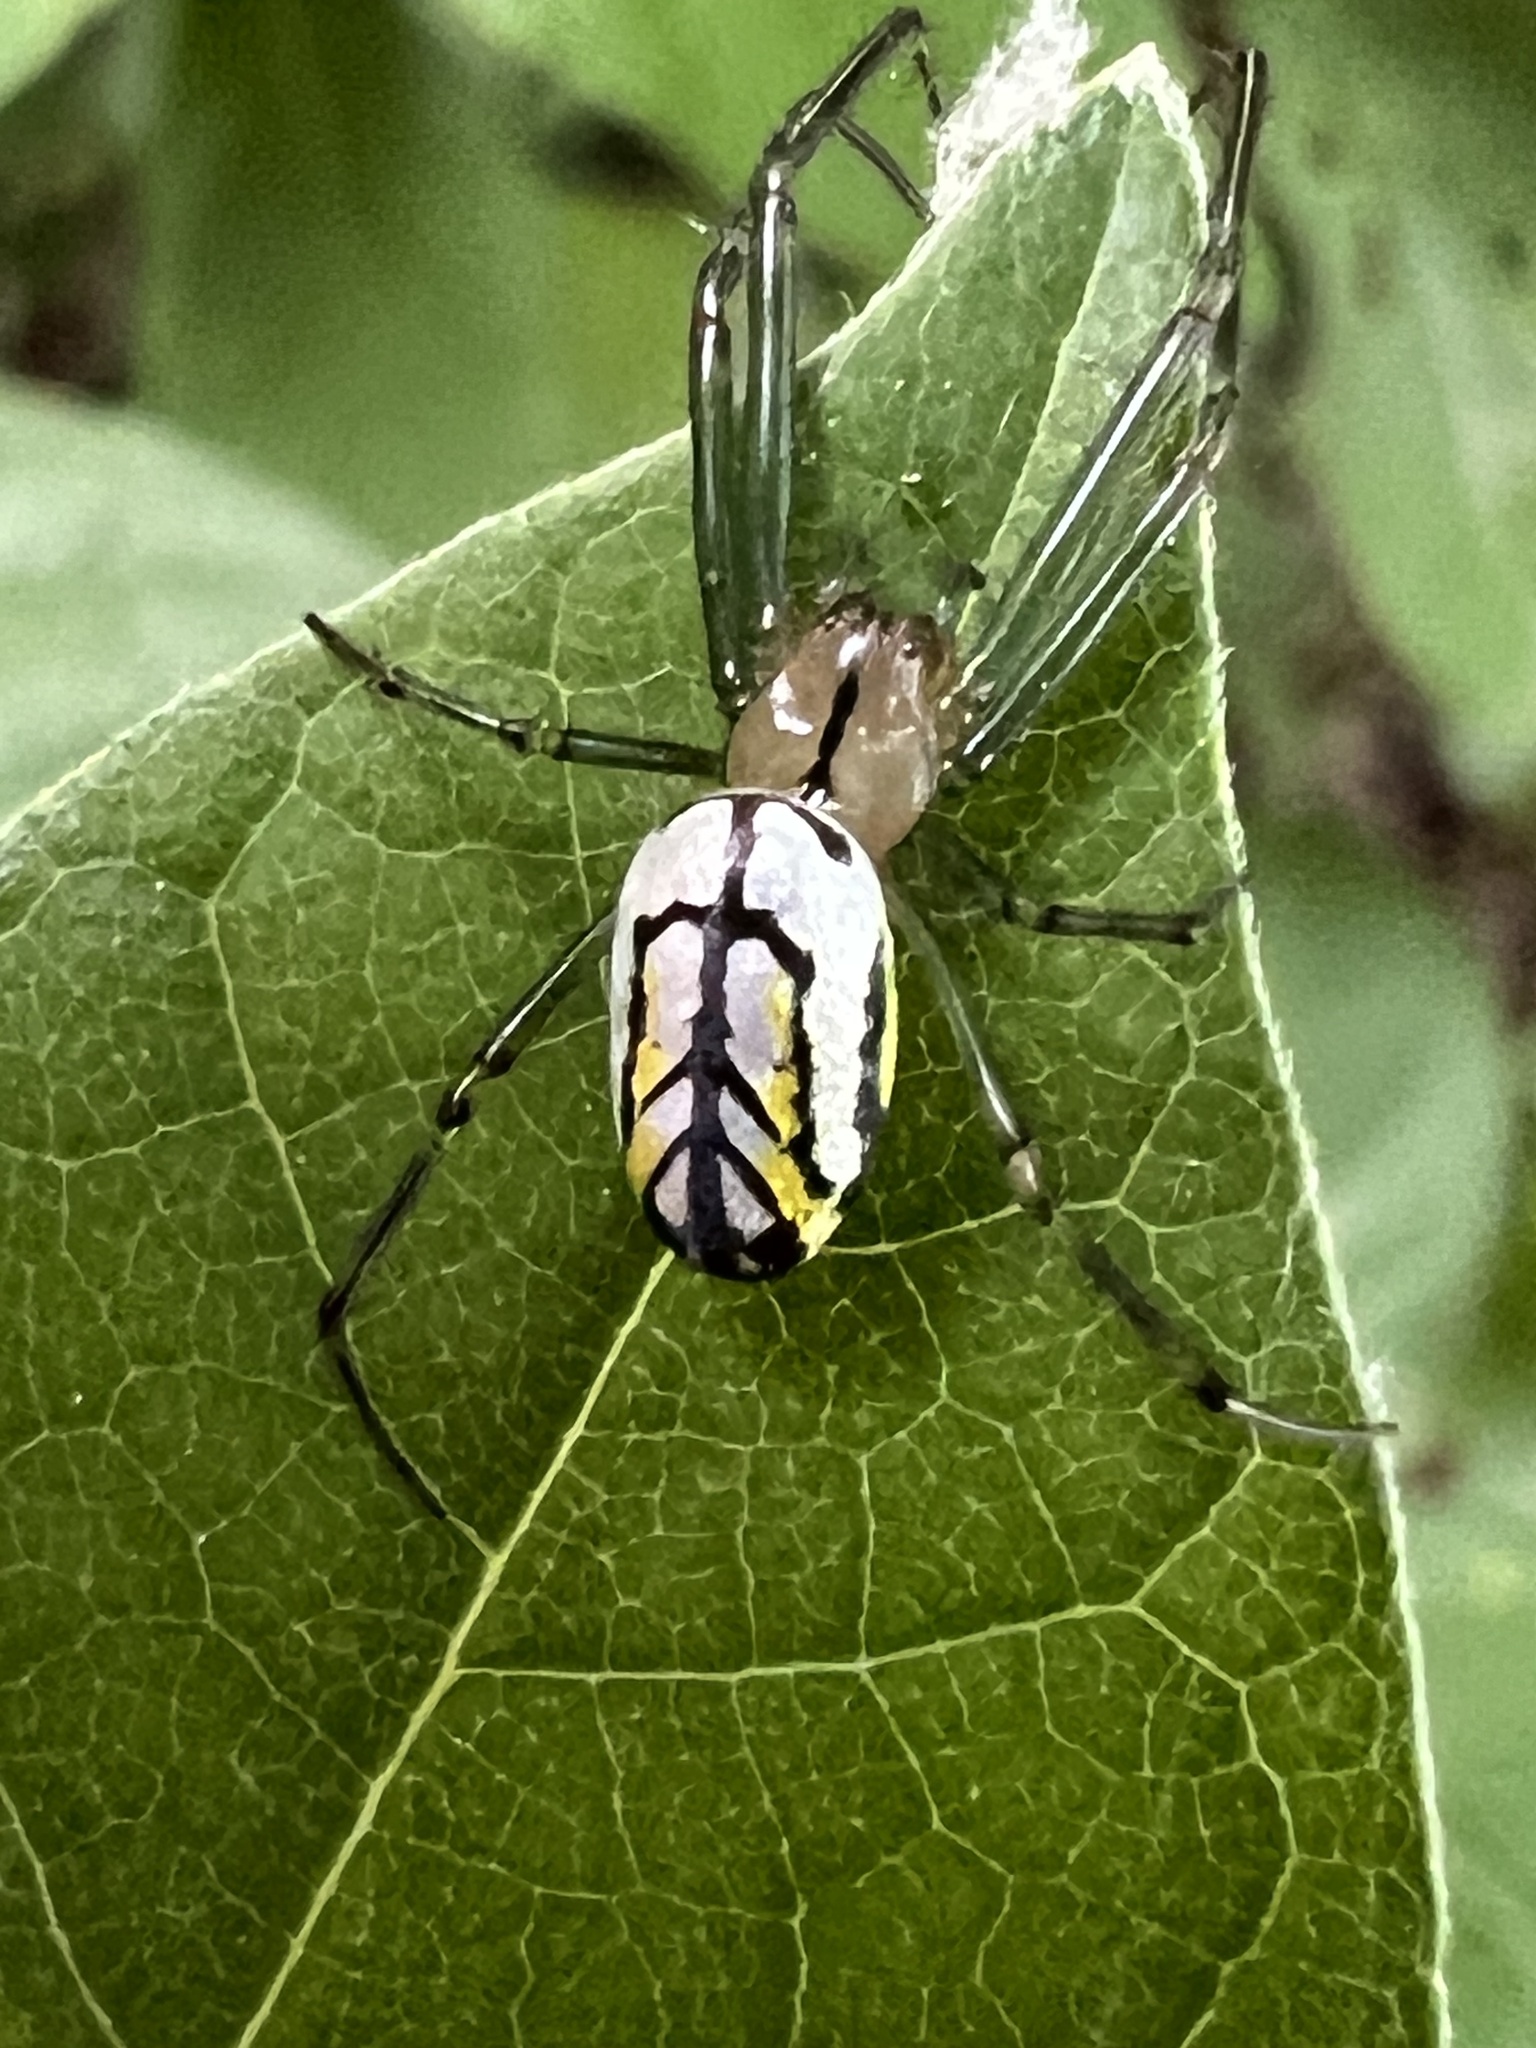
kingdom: Animalia
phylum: Arthropoda
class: Arachnida
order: Araneae
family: Tetragnathidae
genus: Leucauge
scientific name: Leucauge venusta
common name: Longjawed orb weavers
